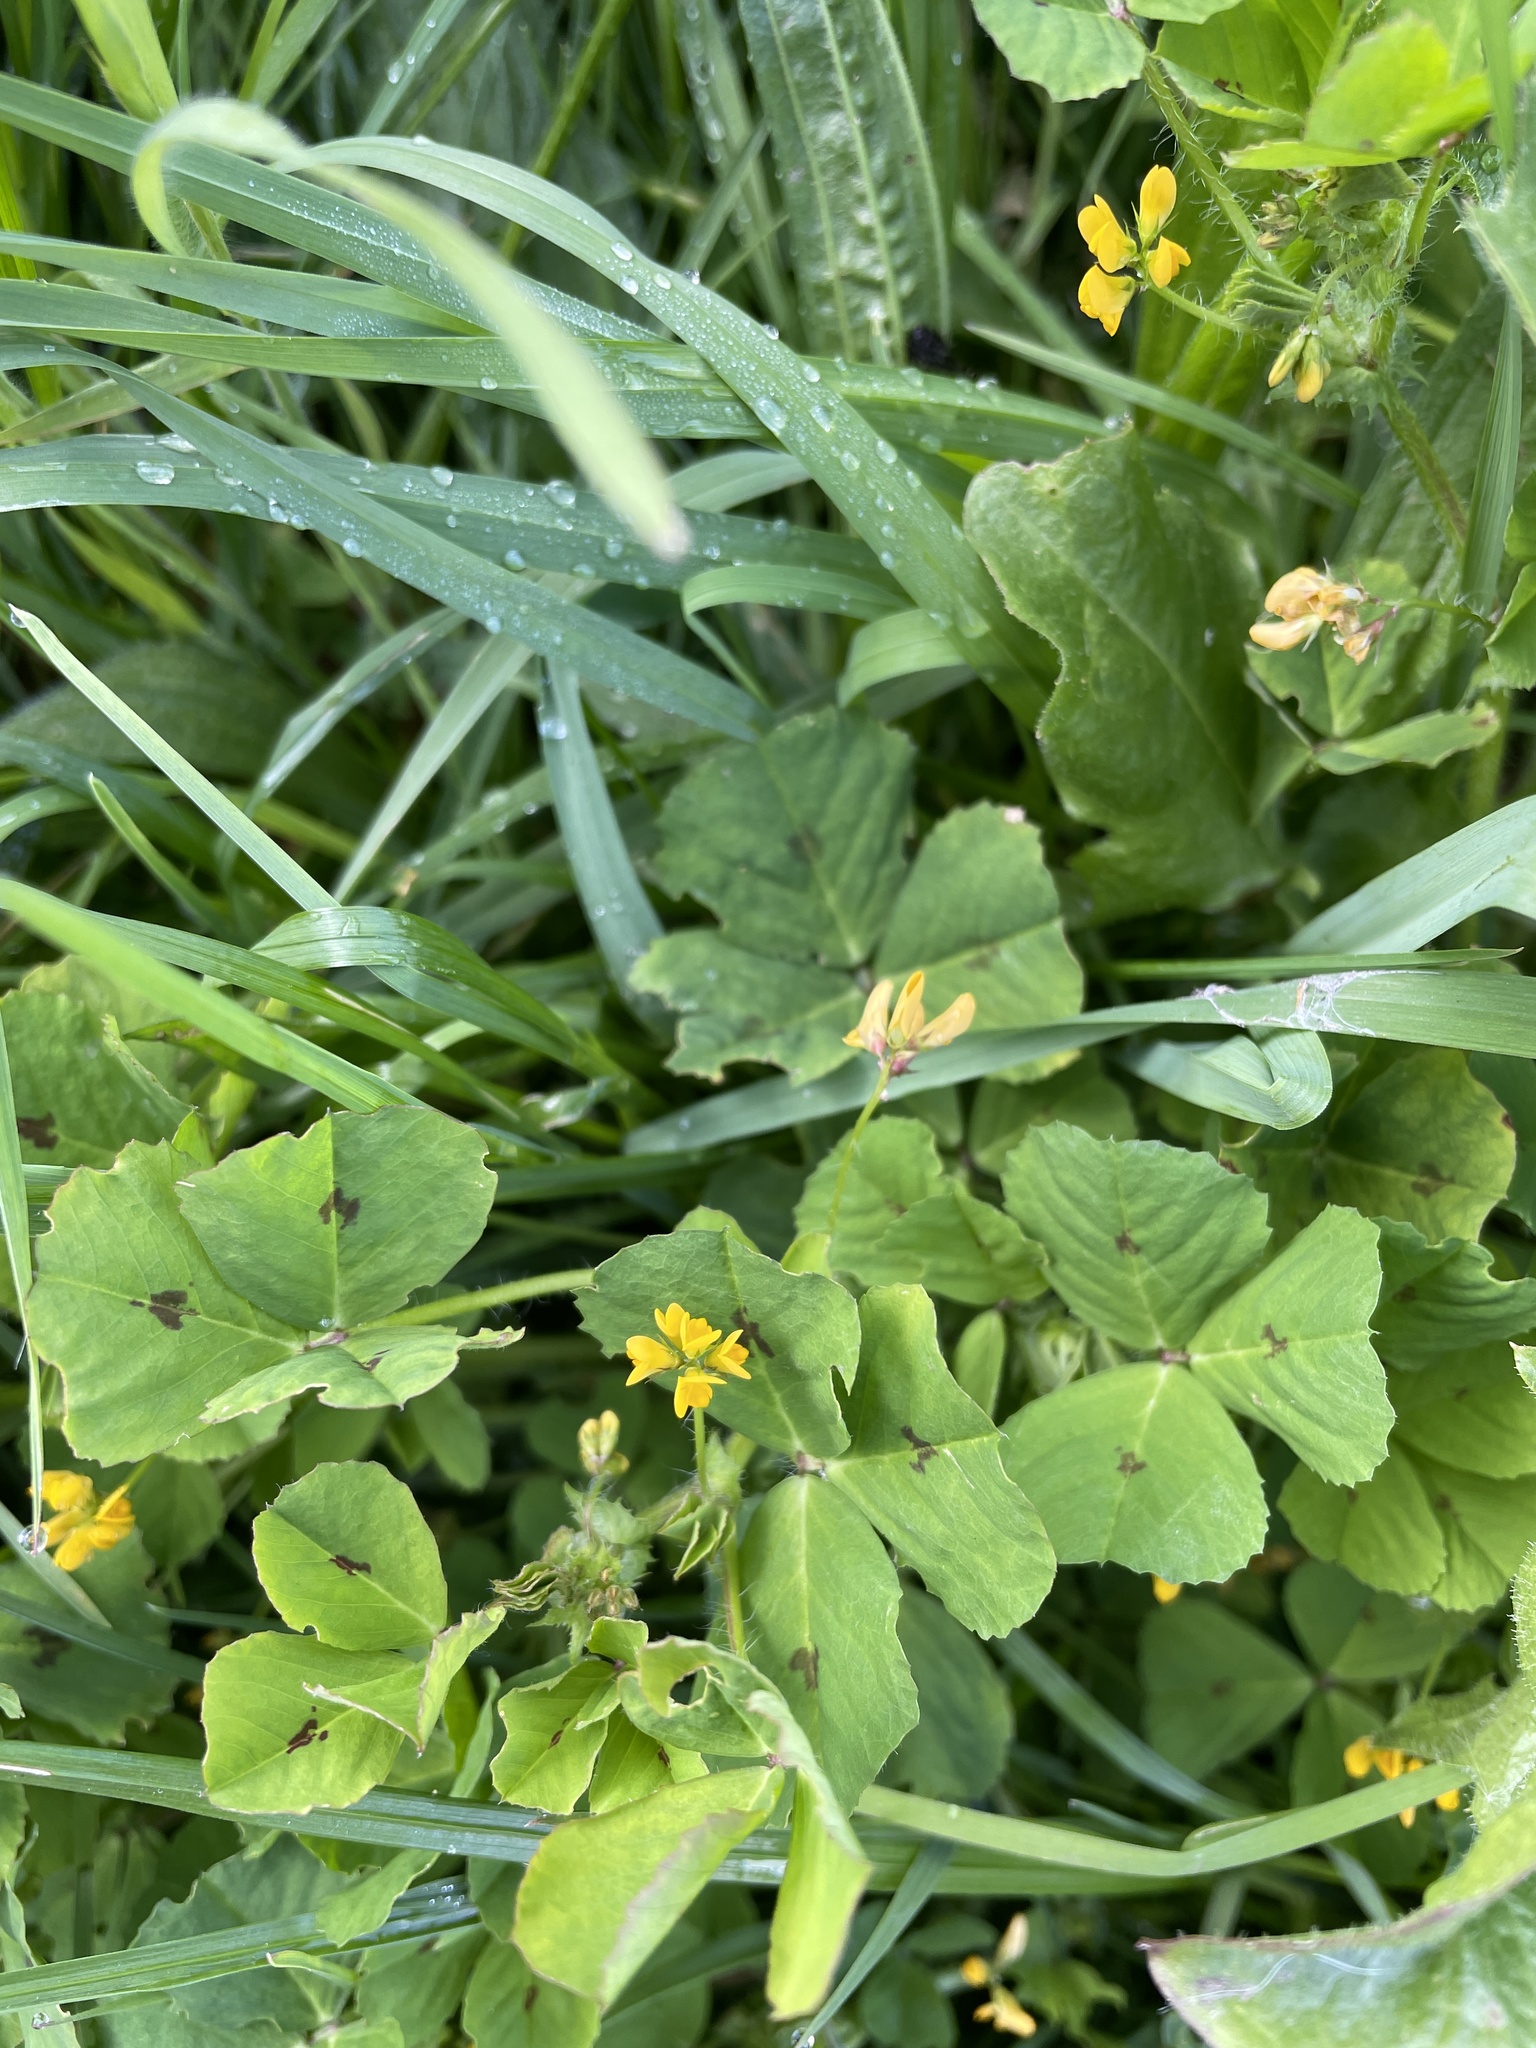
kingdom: Plantae
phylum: Tracheophyta
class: Magnoliopsida
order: Fabales
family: Fabaceae
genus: Medicago
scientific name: Medicago arabica
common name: Spotted medick
